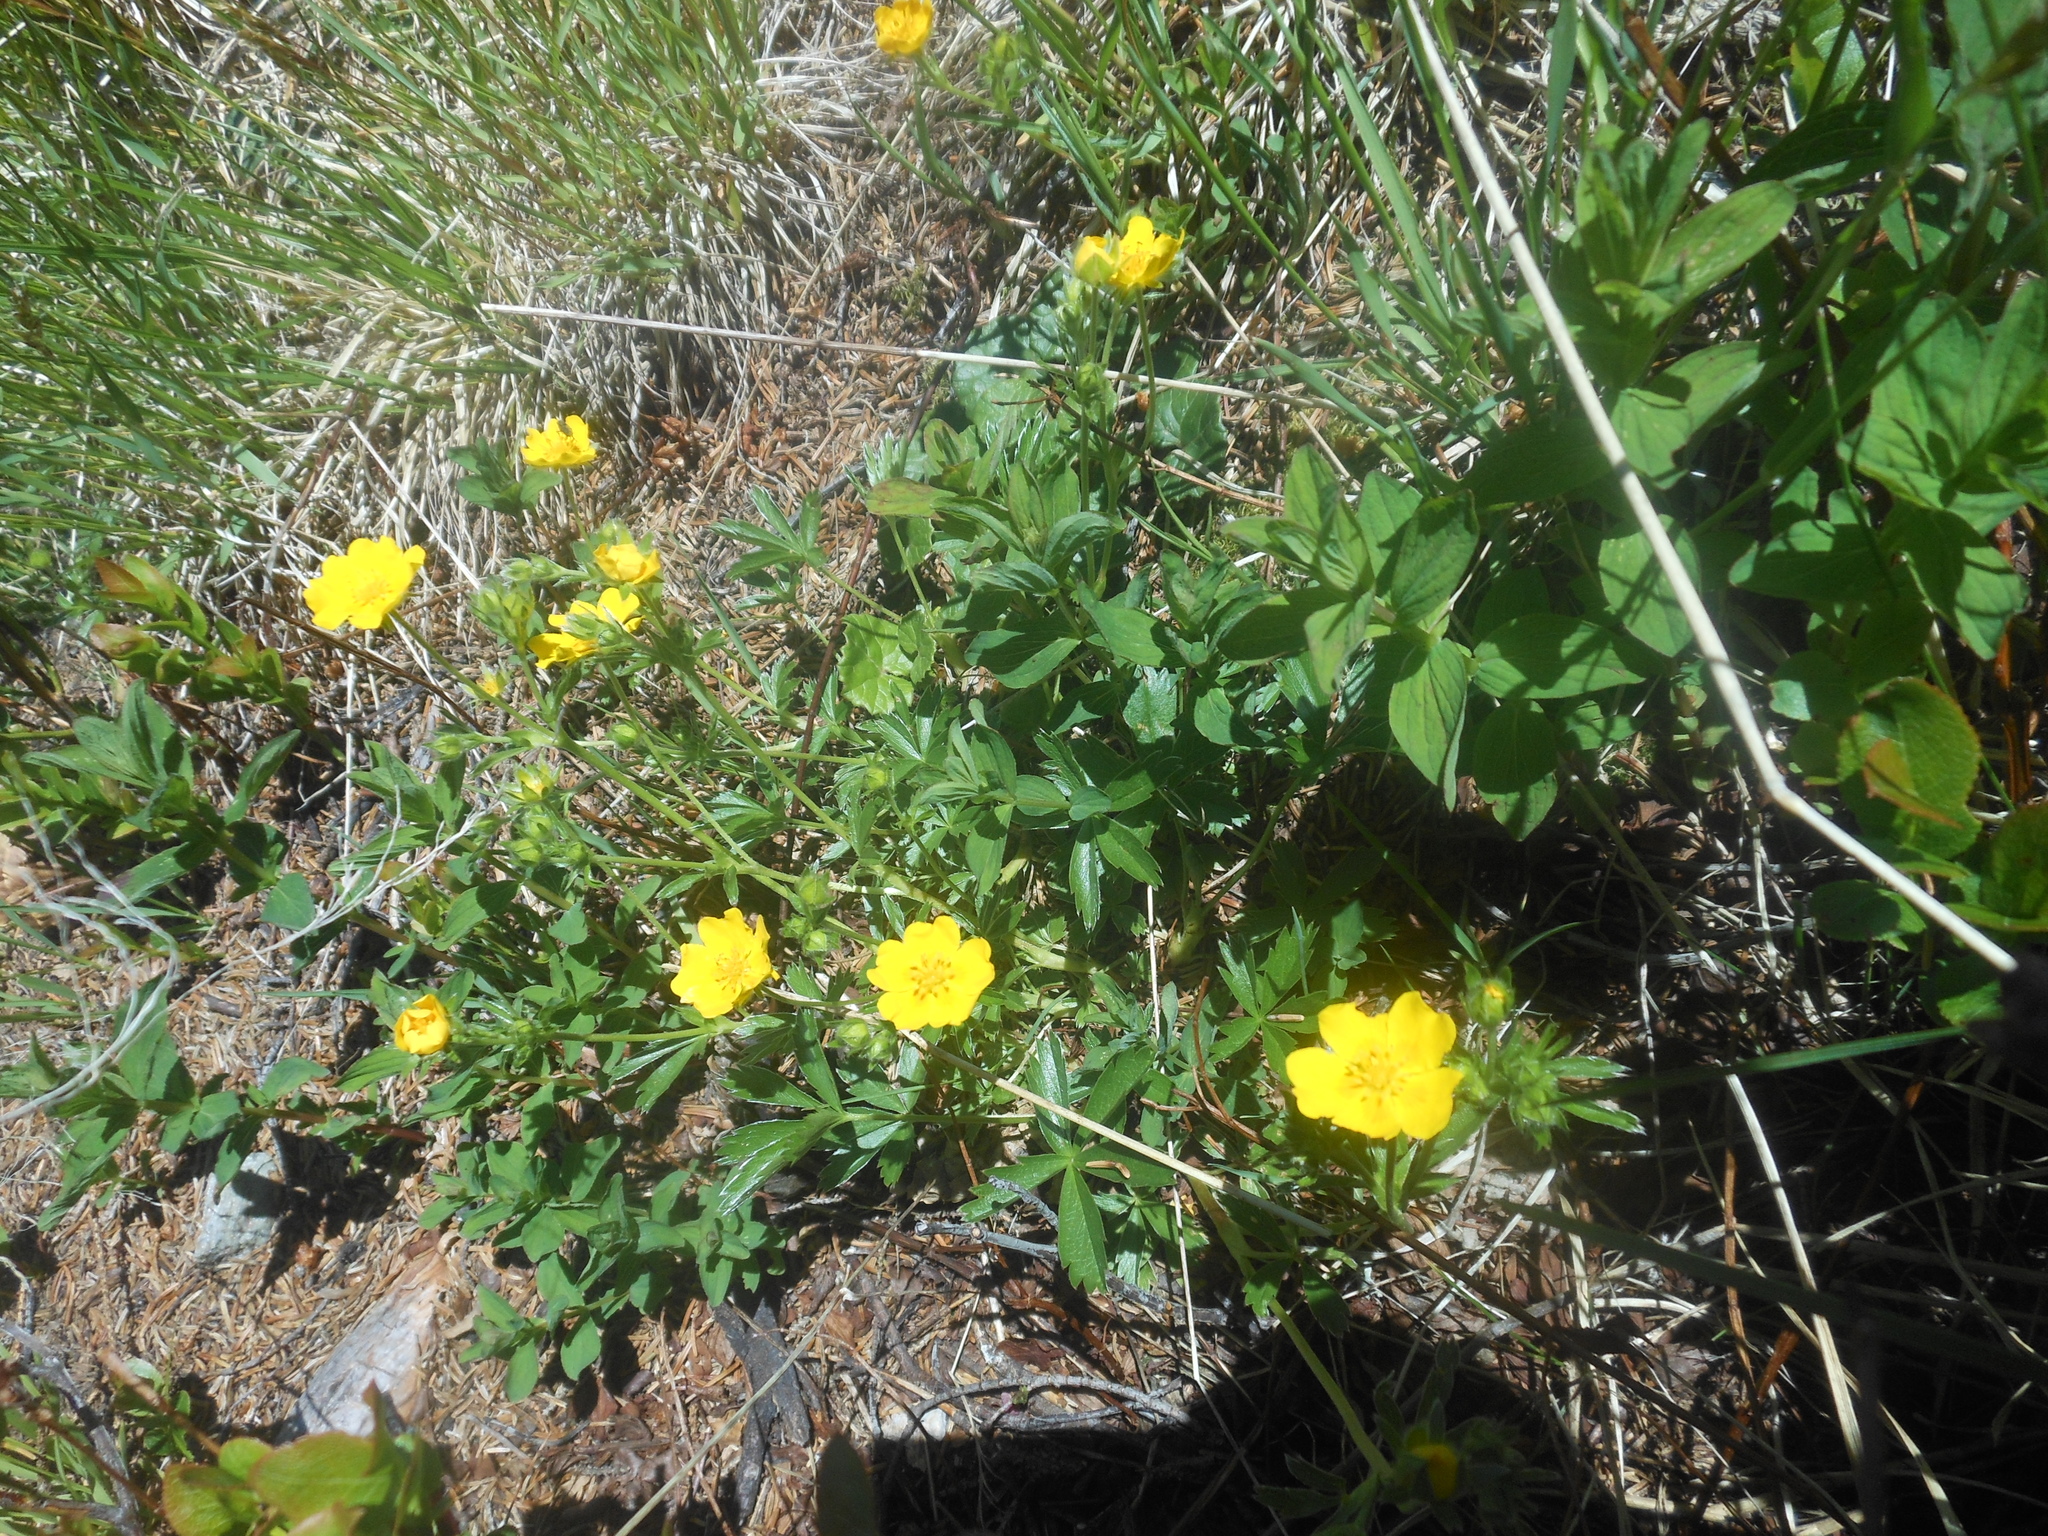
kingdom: Plantae
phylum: Tracheophyta
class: Magnoliopsida
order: Rosales
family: Rosaceae
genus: Potentilla
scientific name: Potentilla aurea
